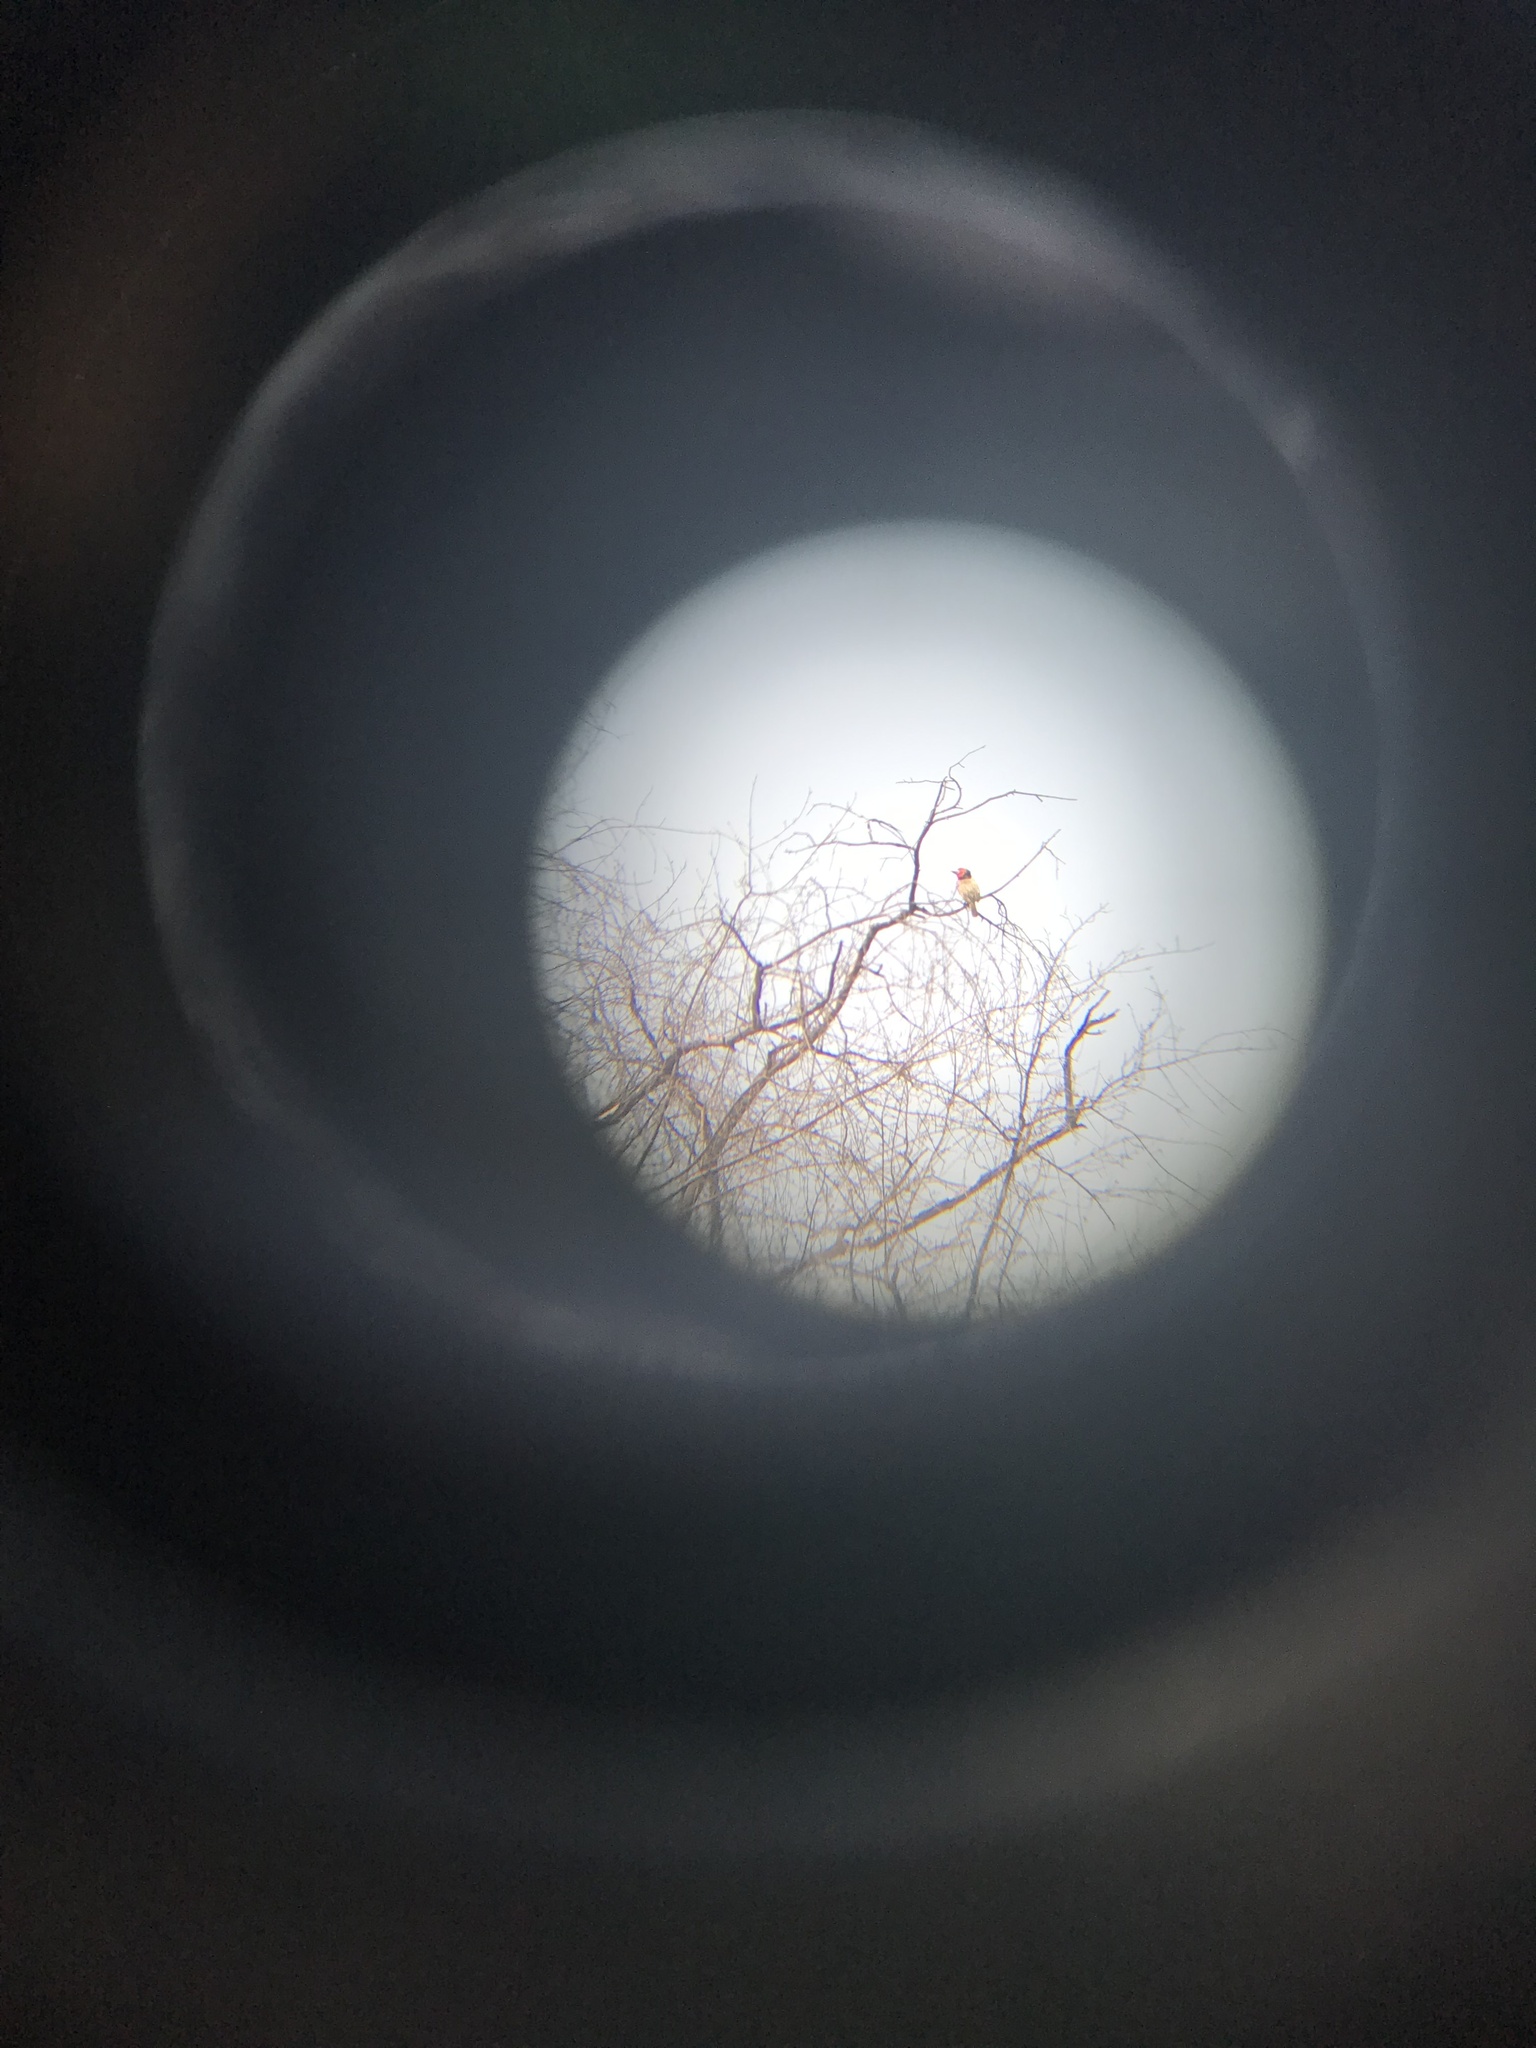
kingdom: Animalia
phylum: Chordata
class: Aves
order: Piciformes
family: Lybiidae
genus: Lybius
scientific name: Lybius torquatus
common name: Black-collared barbet
